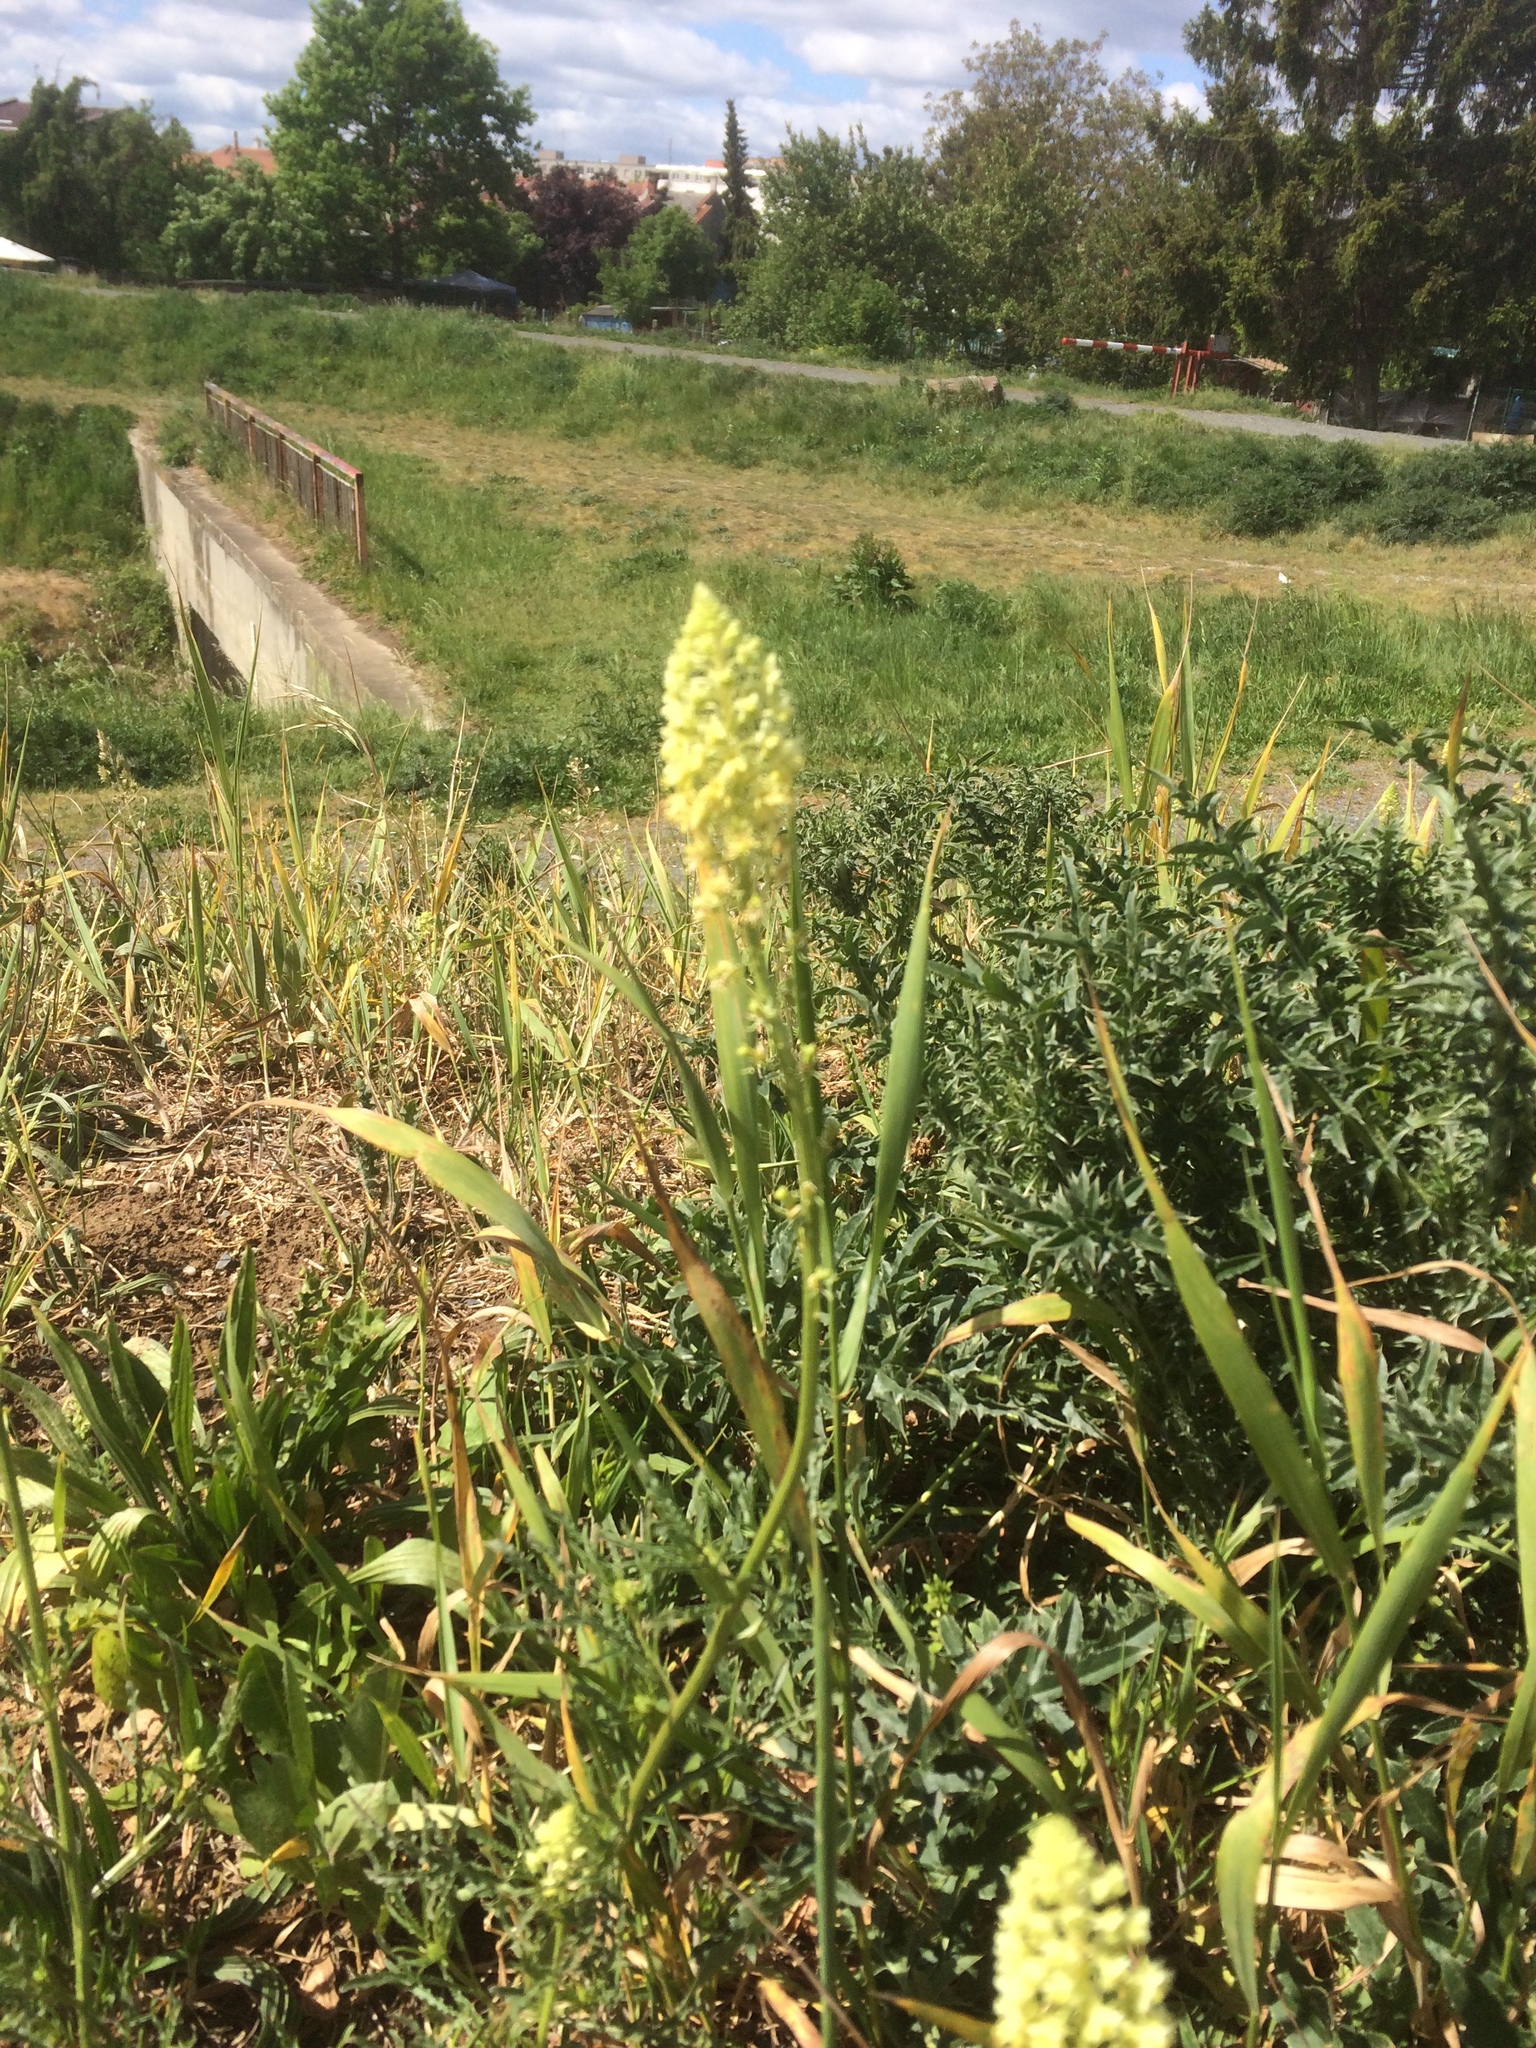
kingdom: Plantae
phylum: Tracheophyta
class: Magnoliopsida
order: Brassicales
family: Resedaceae
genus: Reseda
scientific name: Reseda lutea
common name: Wild mignonette
